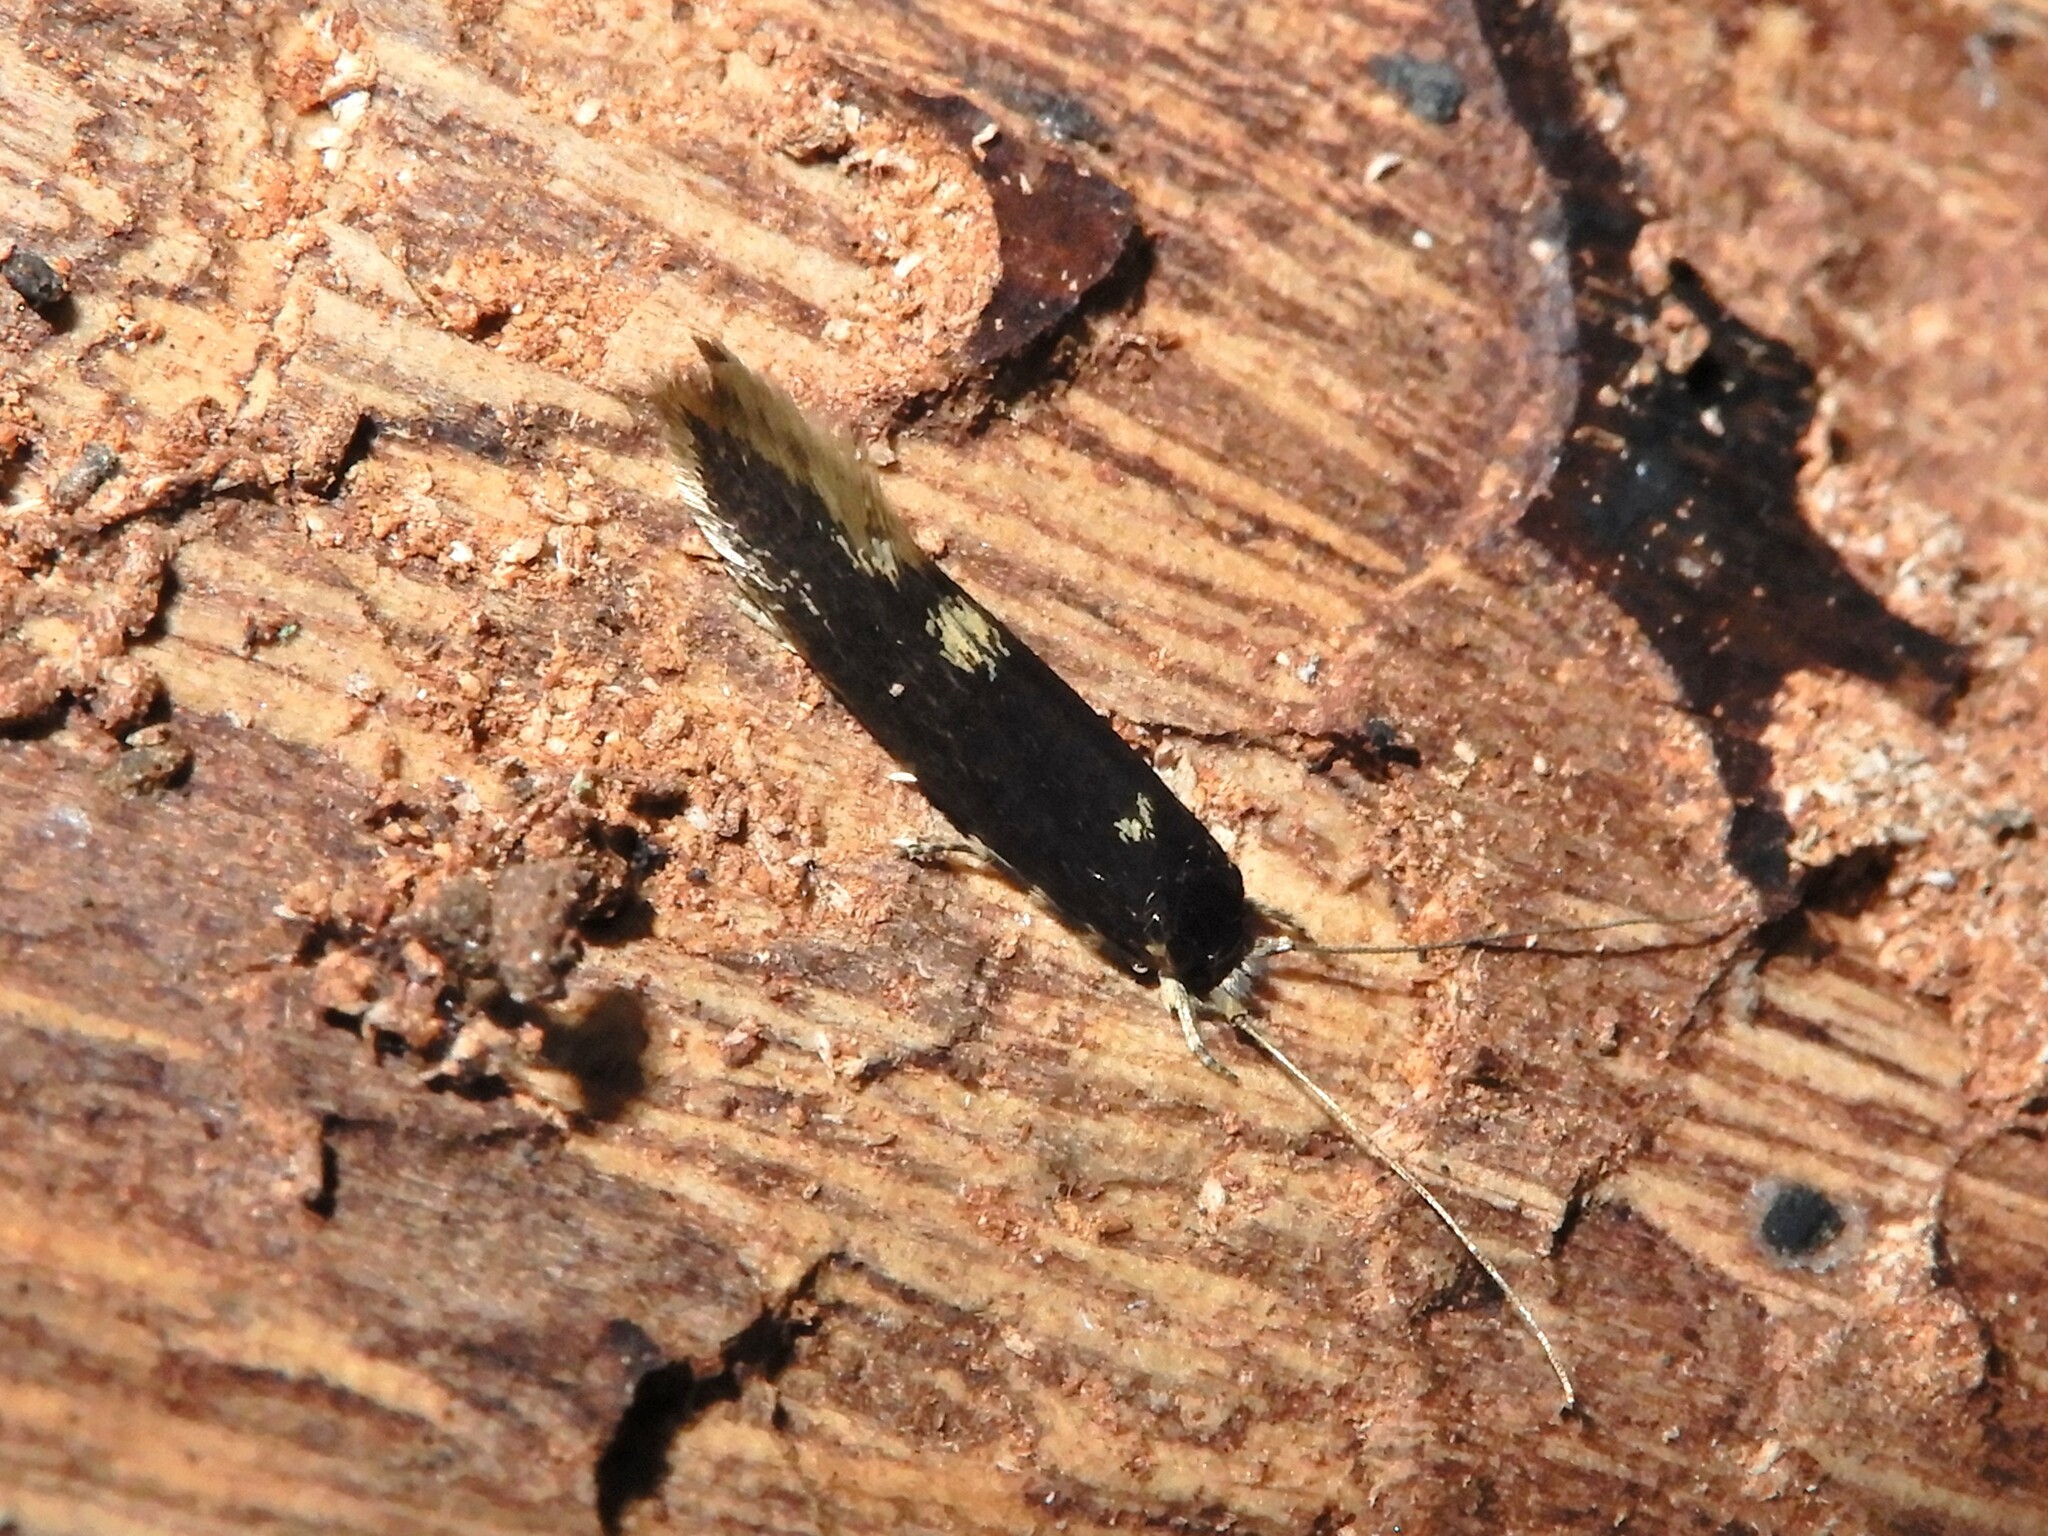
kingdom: Animalia
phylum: Arthropoda
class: Insecta
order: Lepidoptera
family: Tineidae
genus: Opogona
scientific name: Opogona omoscopa
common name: Moth
